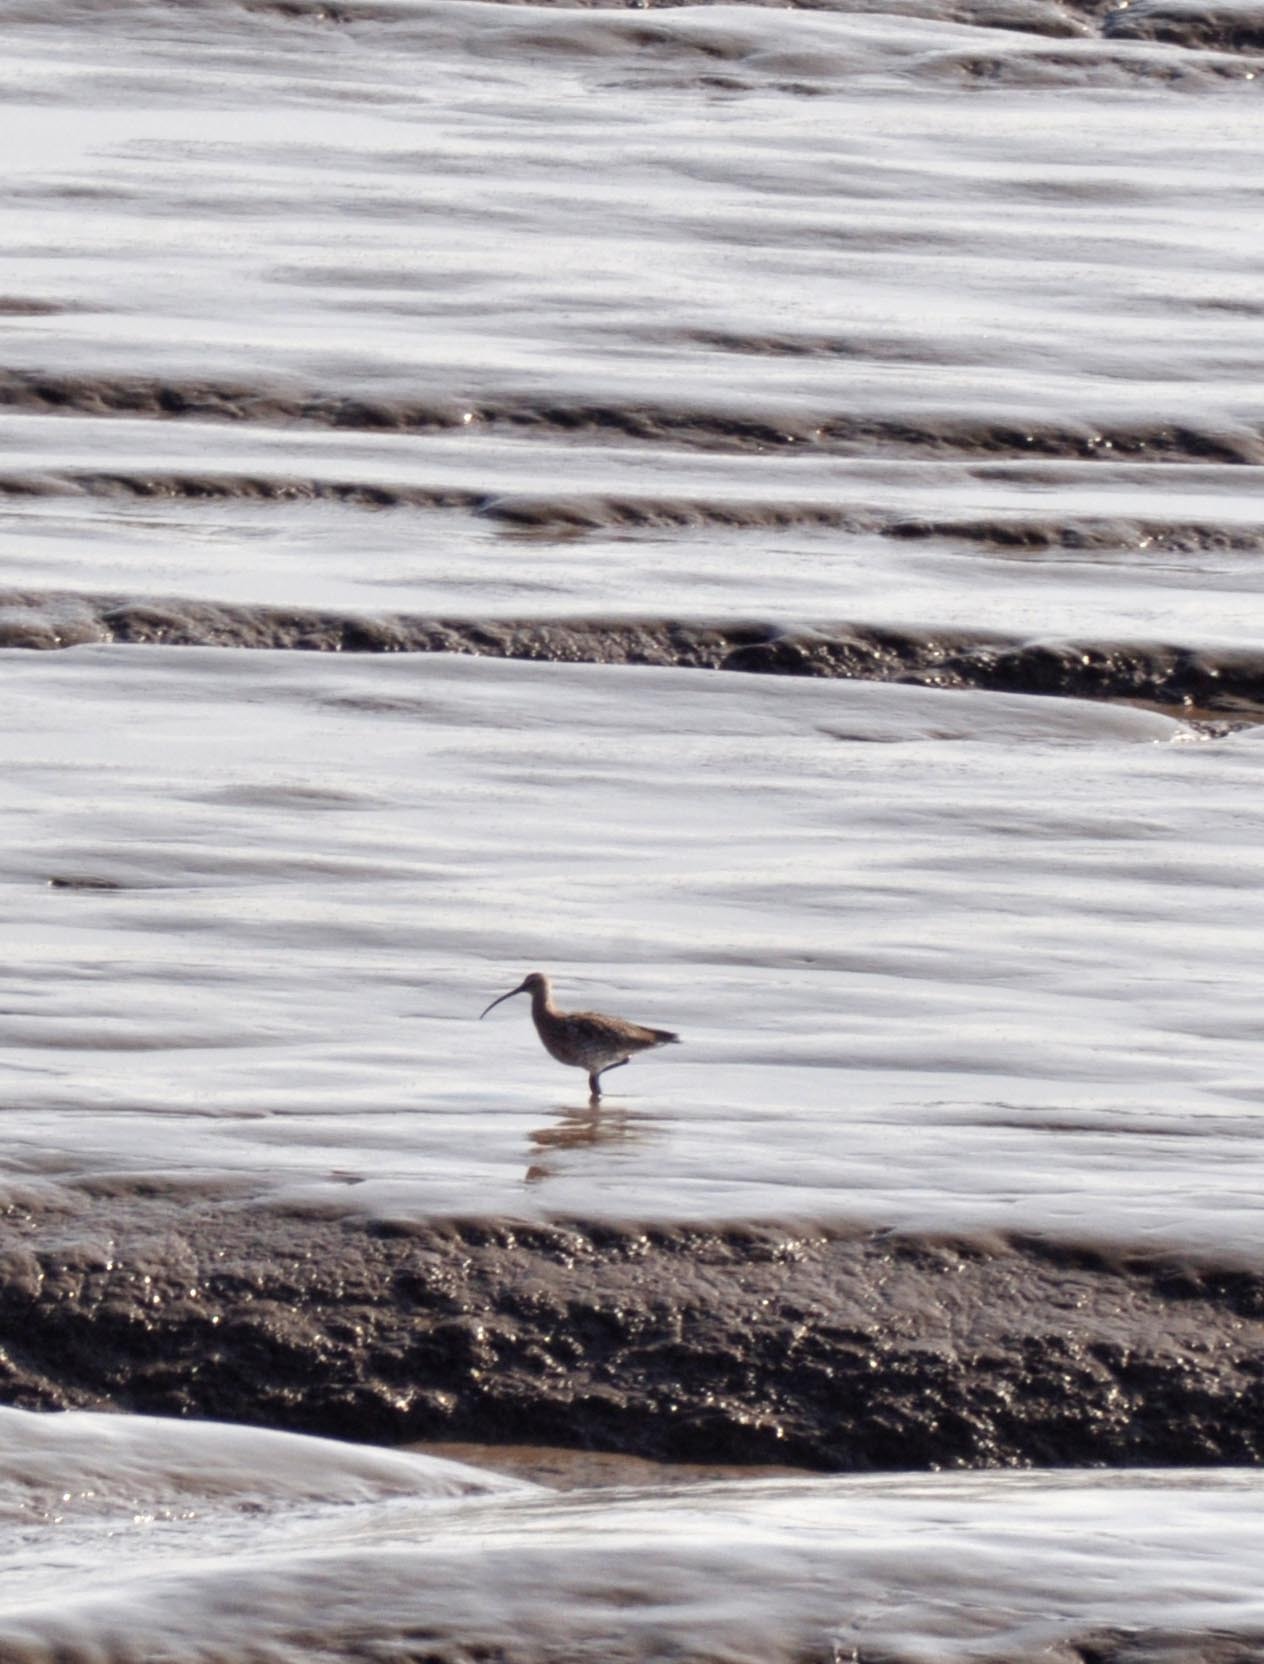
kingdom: Animalia
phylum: Chordata
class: Aves
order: Charadriiformes
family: Scolopacidae
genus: Numenius
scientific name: Numenius arquata
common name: Eurasian curlew
